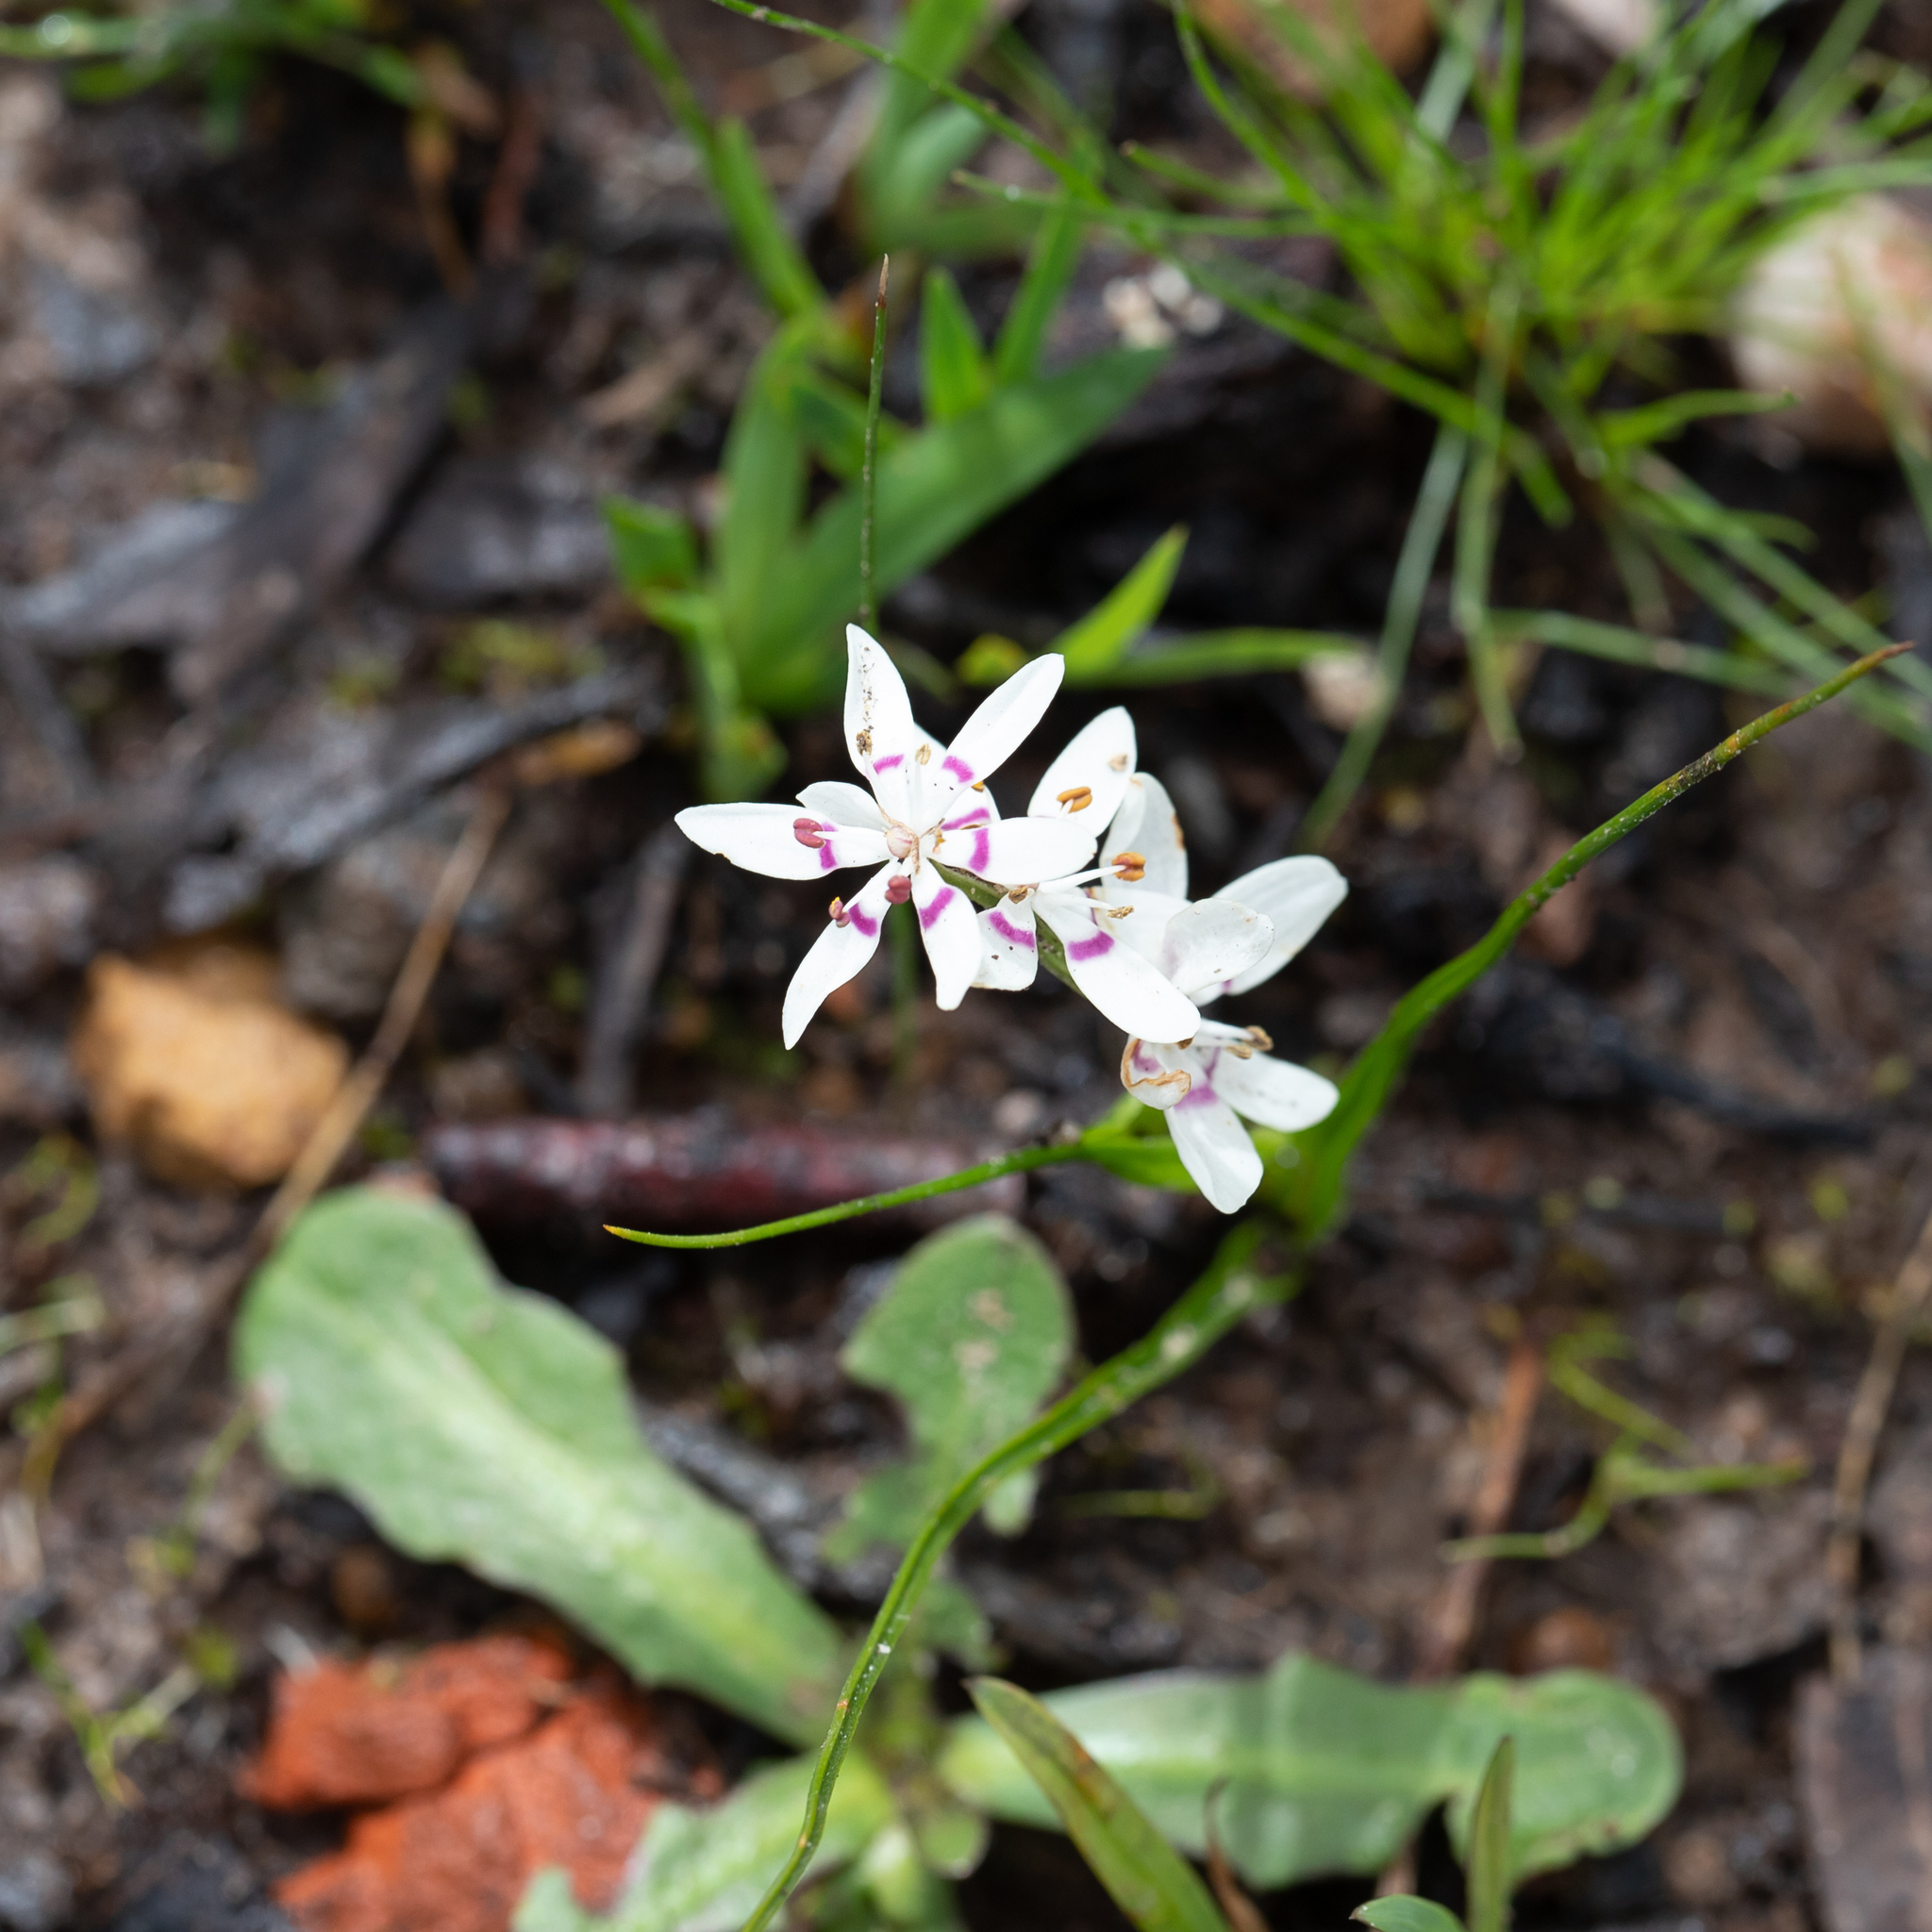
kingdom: Plantae
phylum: Tracheophyta
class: Liliopsida
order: Liliales
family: Colchicaceae
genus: Wurmbea
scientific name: Wurmbea dioica
